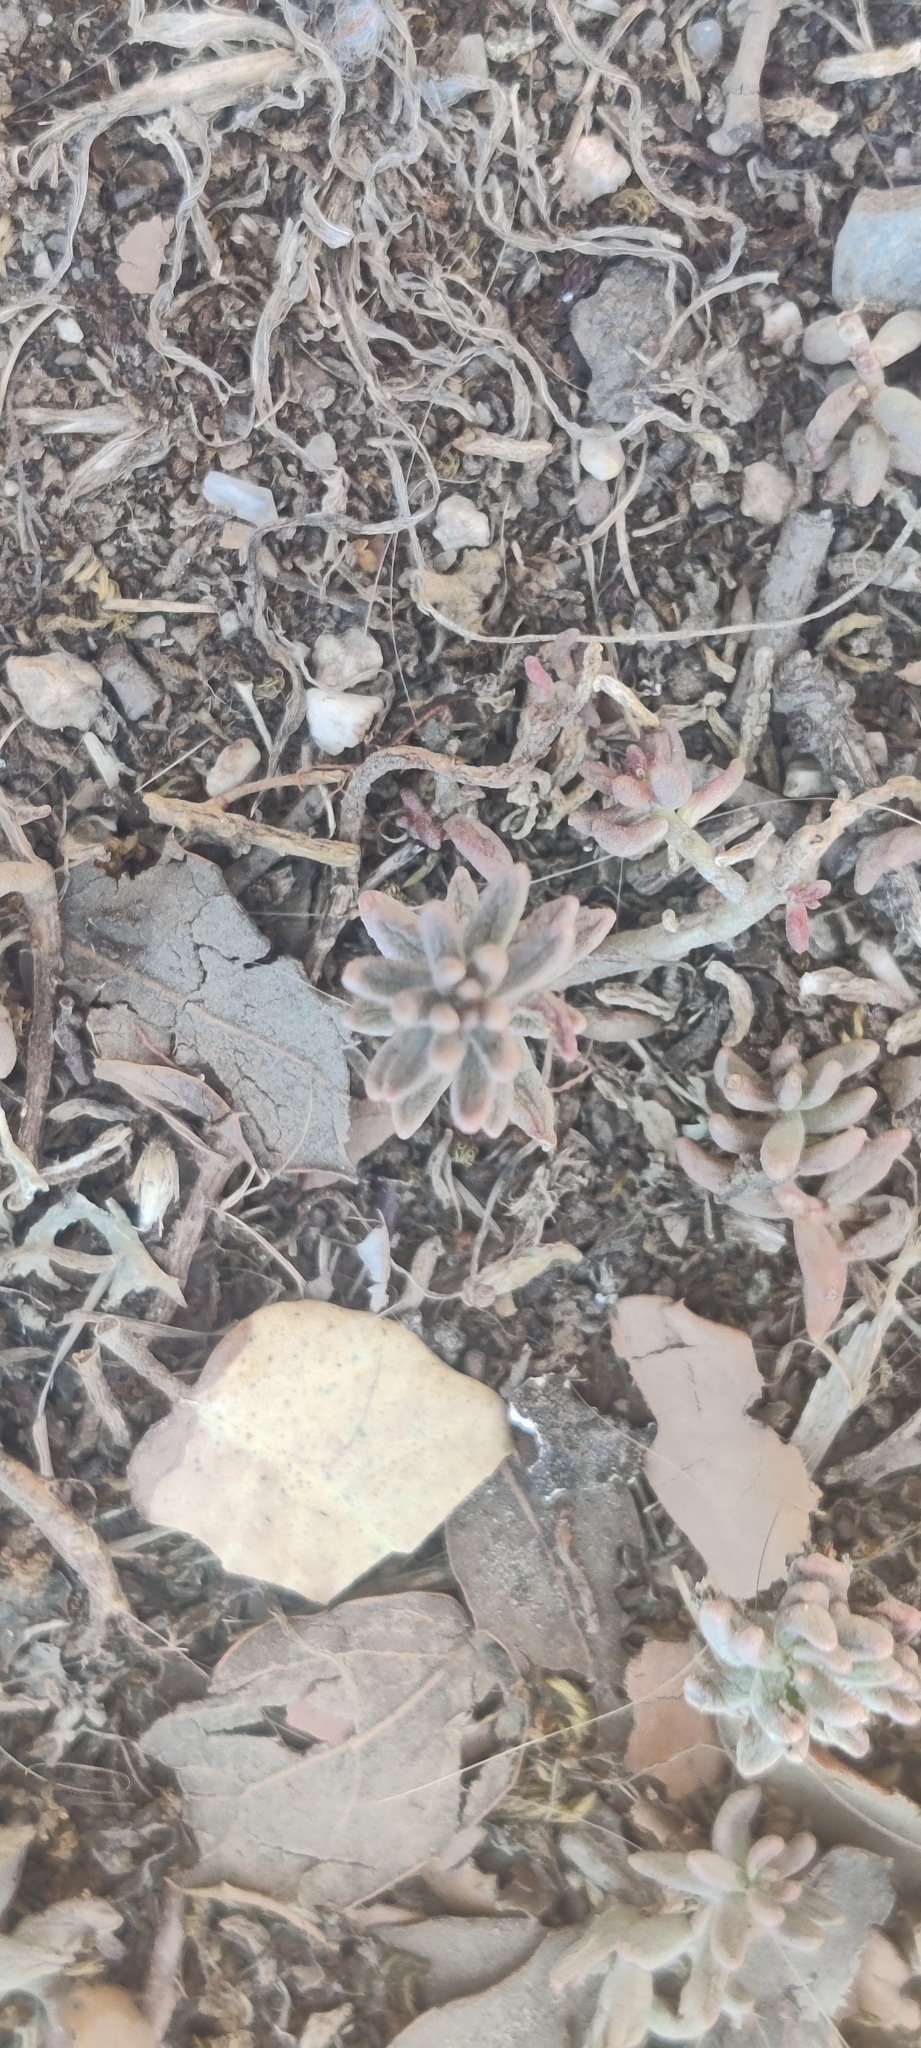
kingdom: Plantae
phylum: Tracheophyta
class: Magnoliopsida
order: Saxifragales
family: Crassulaceae
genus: Sedum
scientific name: Sedum album
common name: White stonecrop
